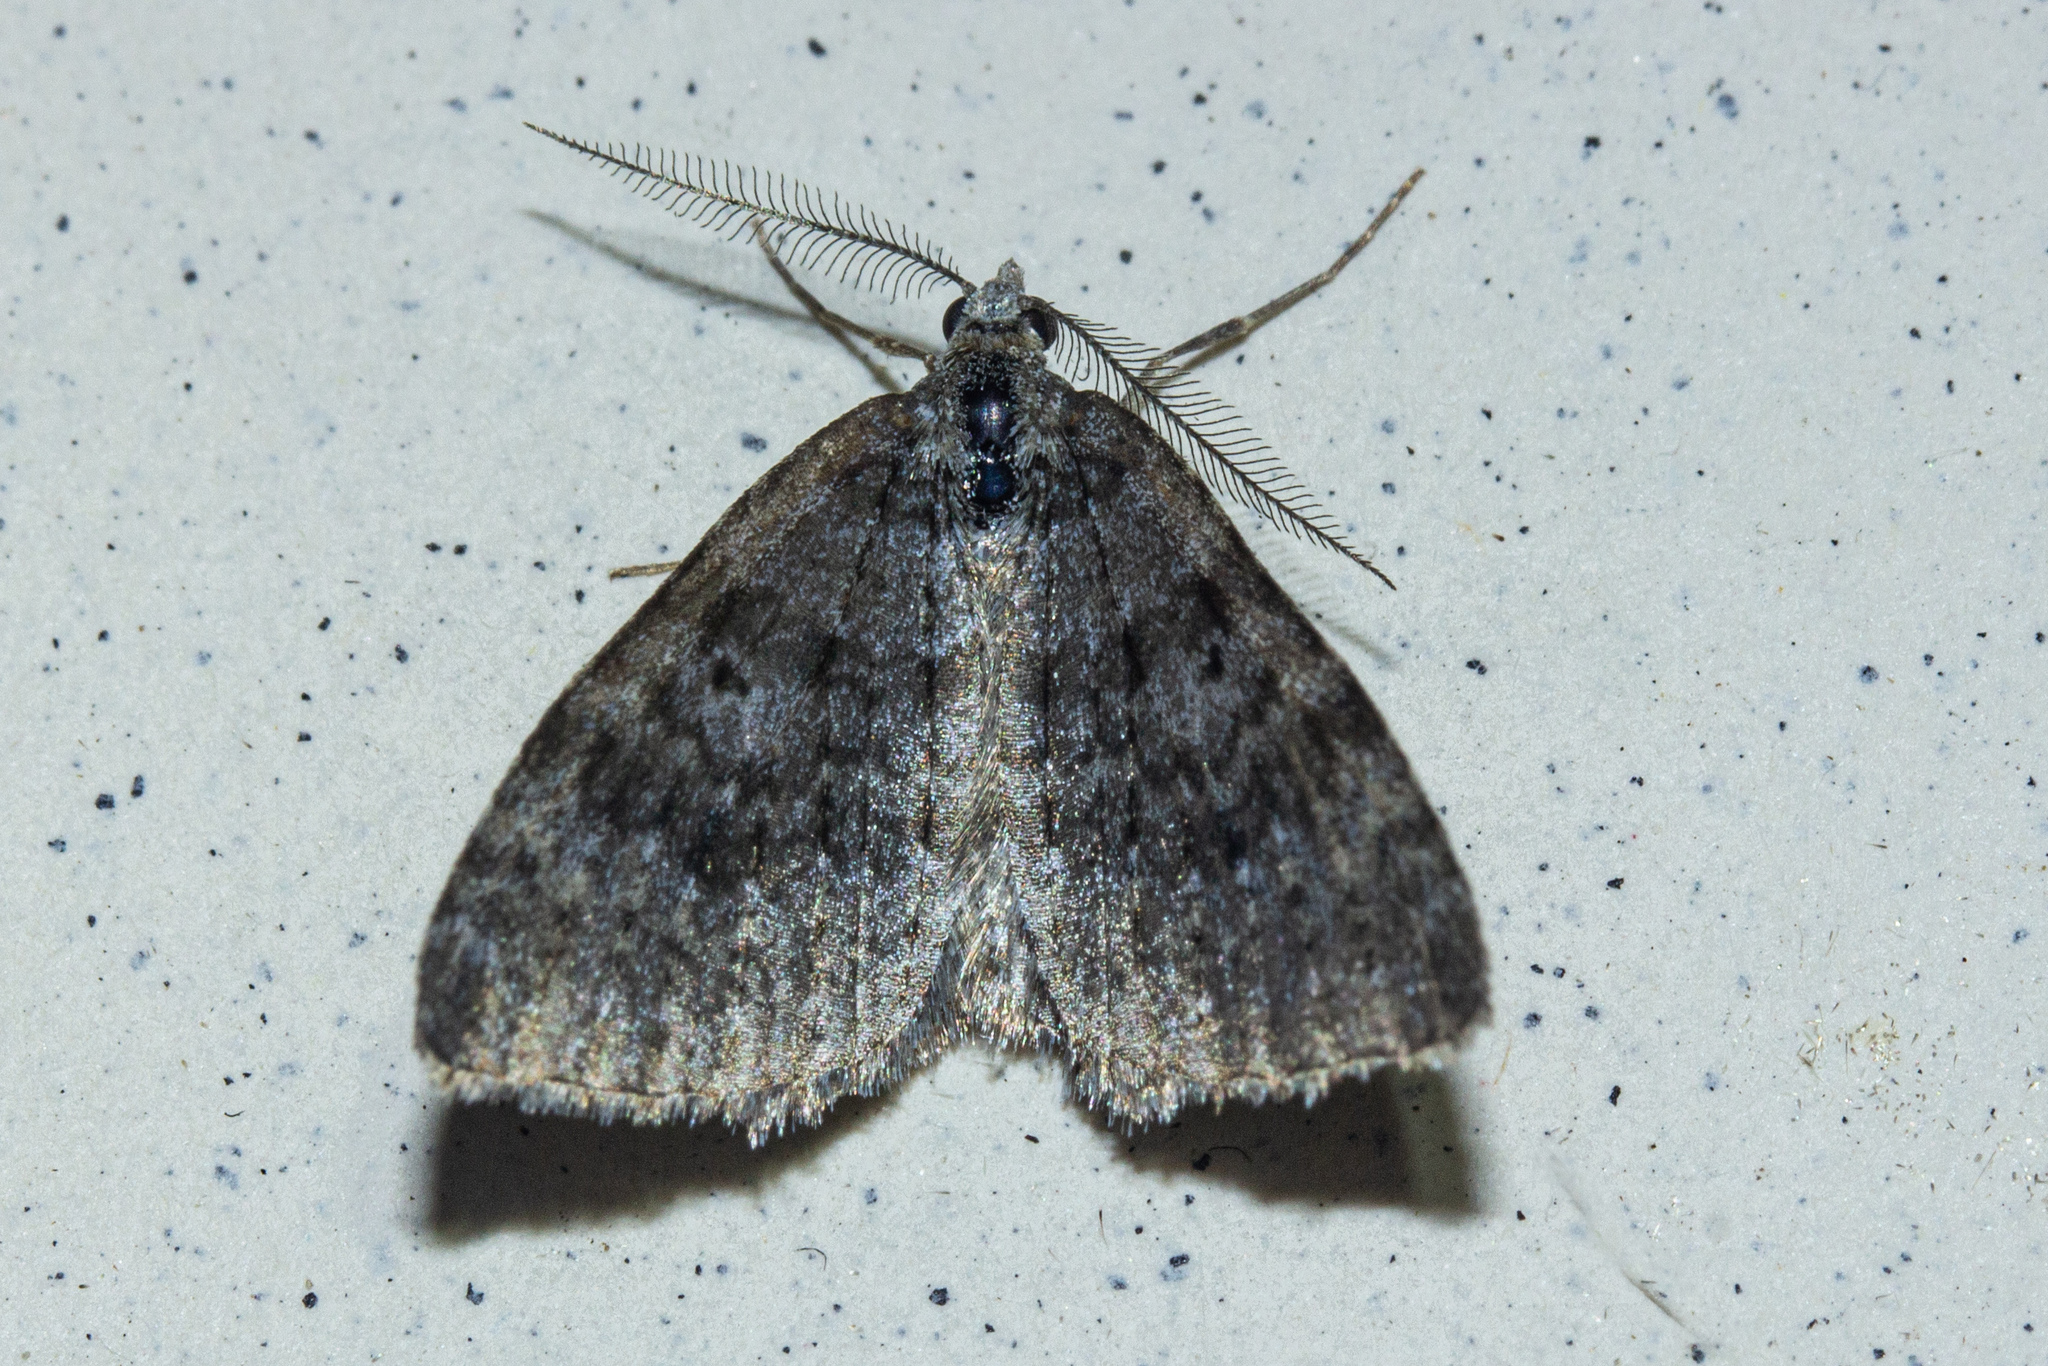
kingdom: Animalia
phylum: Arthropoda
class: Insecta
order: Lepidoptera
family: Geometridae
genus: Helastia
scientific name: Helastia corcularia
